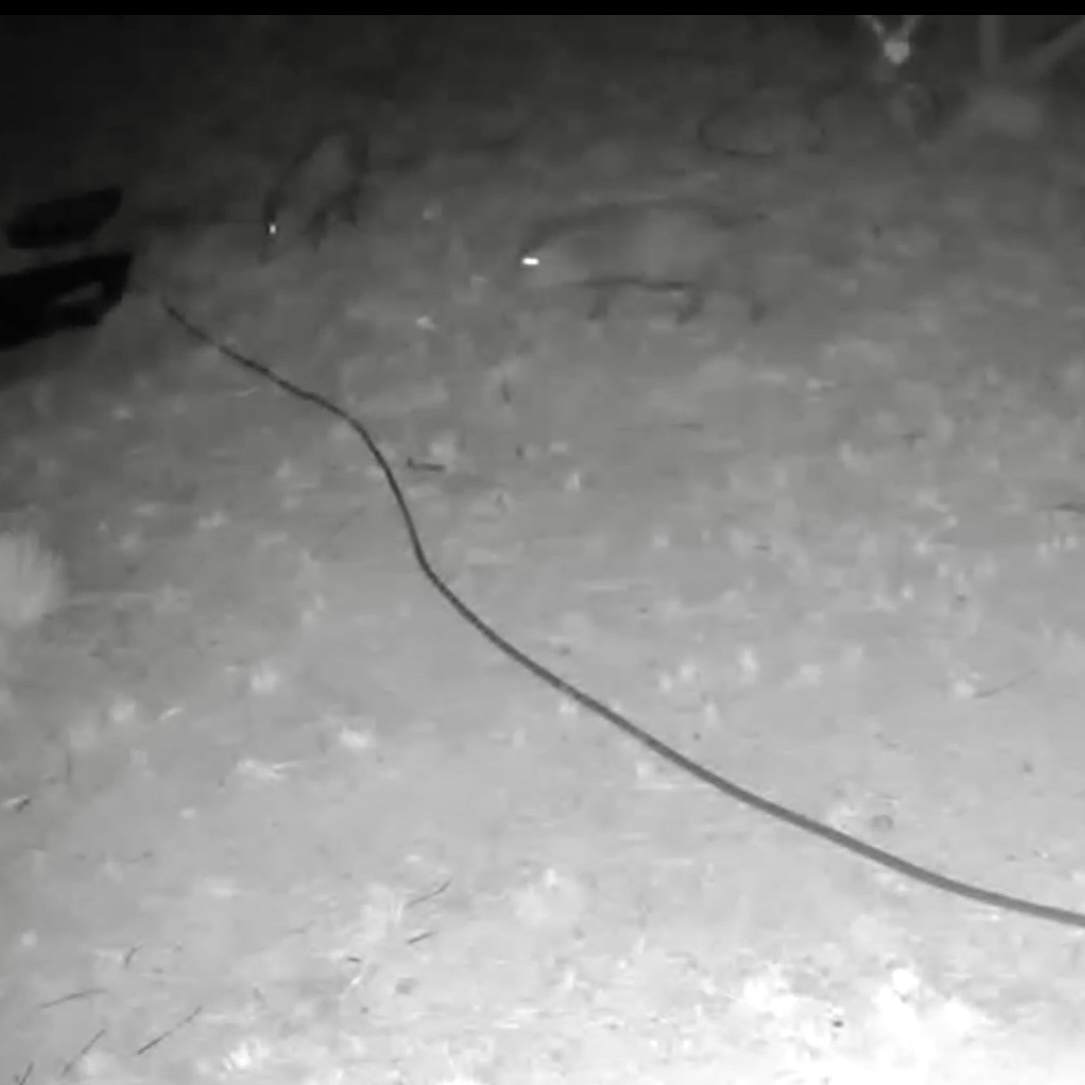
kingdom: Animalia
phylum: Chordata
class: Mammalia
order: Artiodactyla
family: Tayassuidae
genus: Pecari
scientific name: Pecari tajacu
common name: Collared peccary
